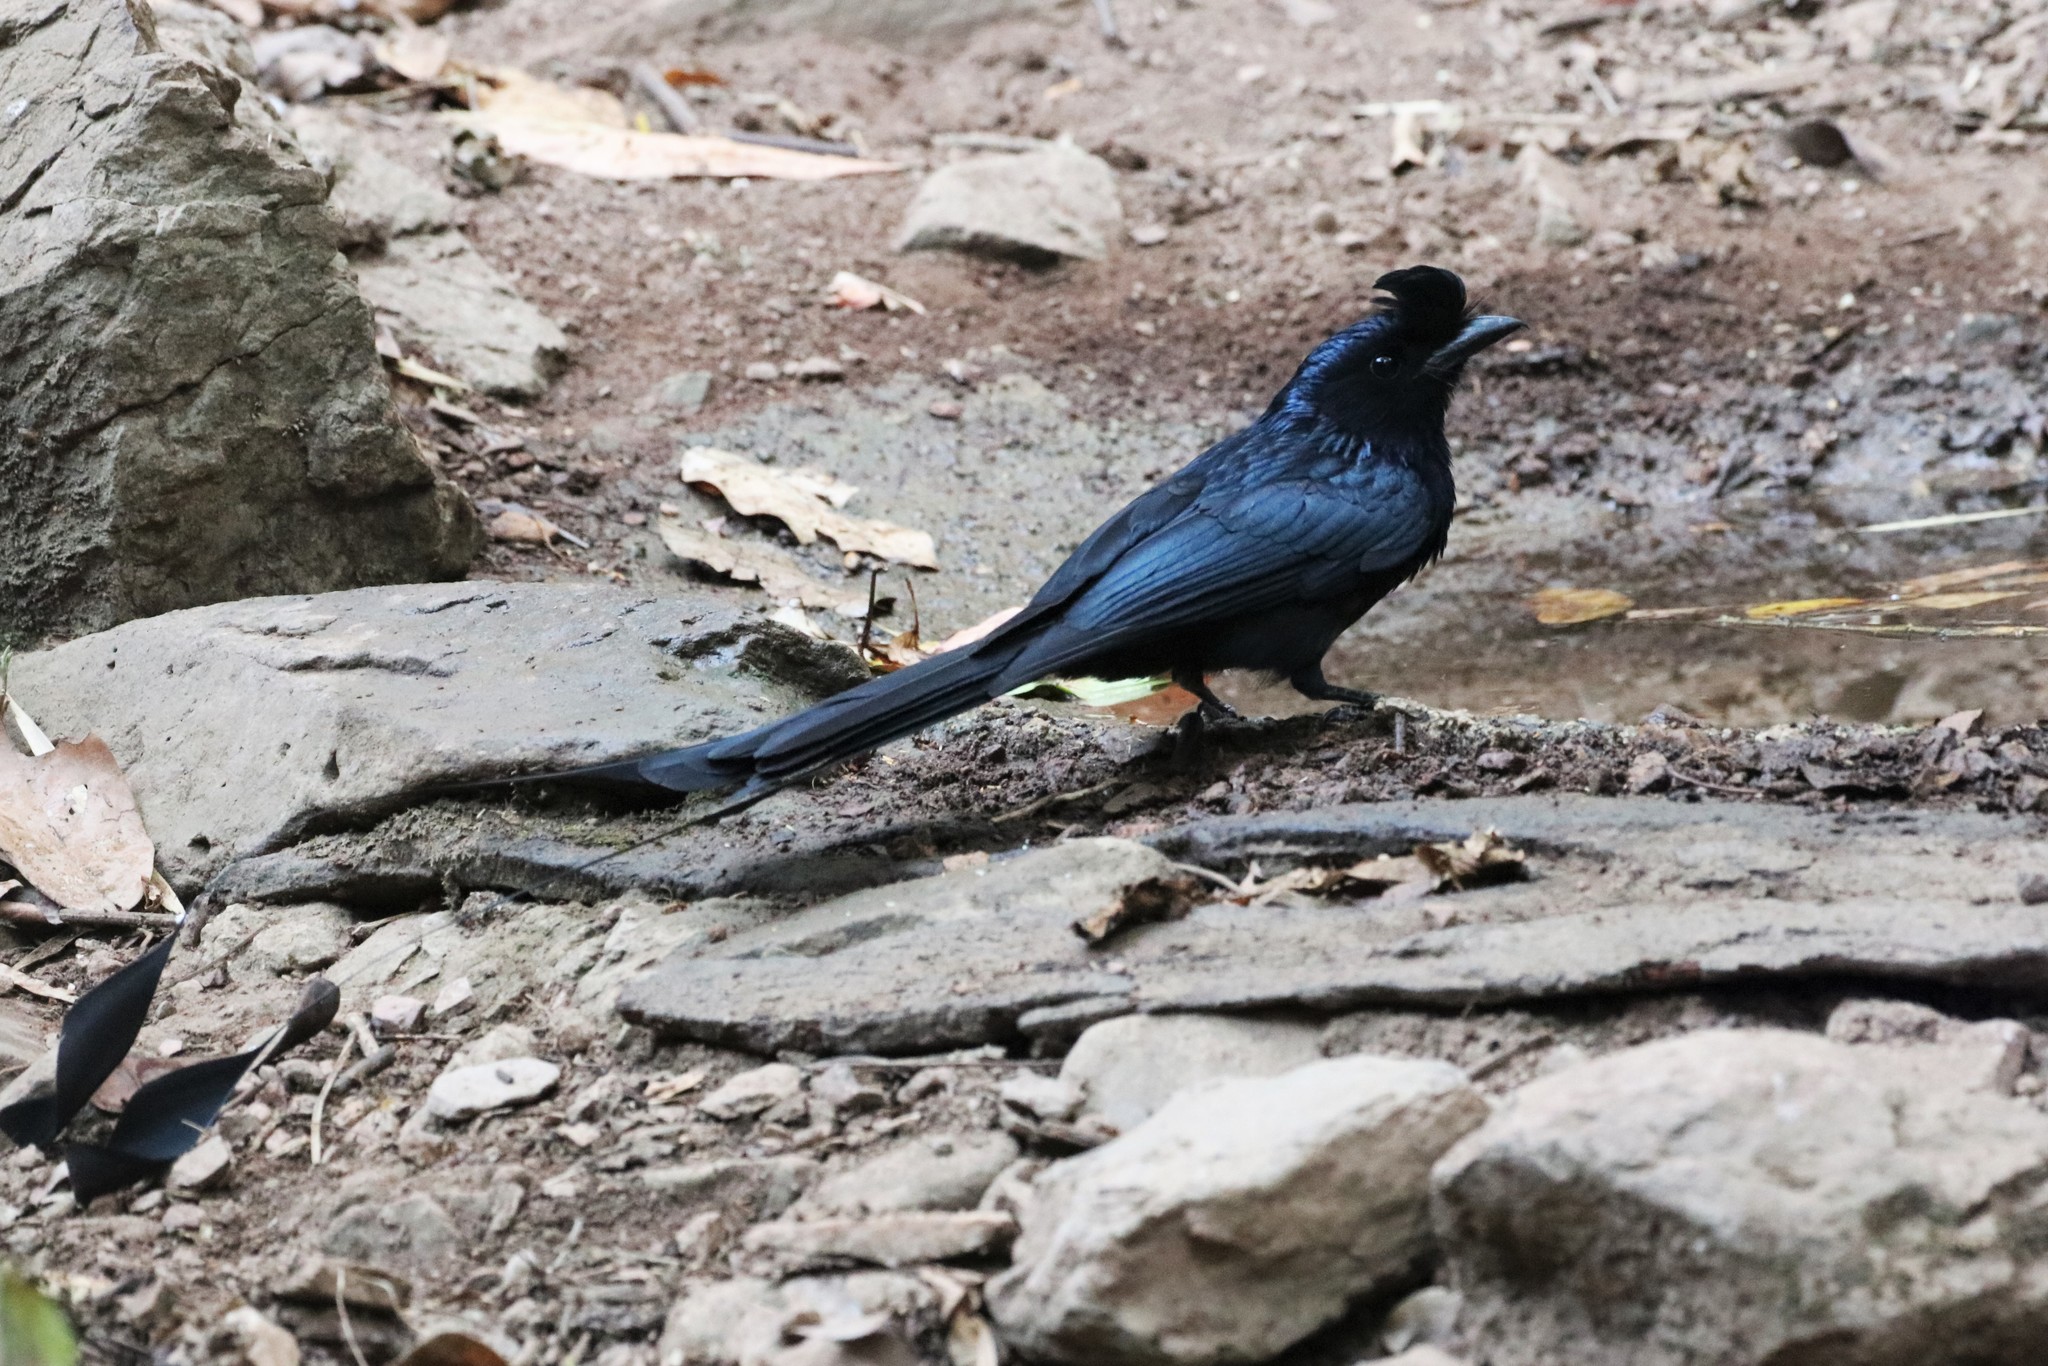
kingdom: Animalia
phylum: Chordata
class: Aves
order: Passeriformes
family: Dicruridae
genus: Dicrurus
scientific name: Dicrurus paradiseus
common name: Greater racket-tailed drongo
